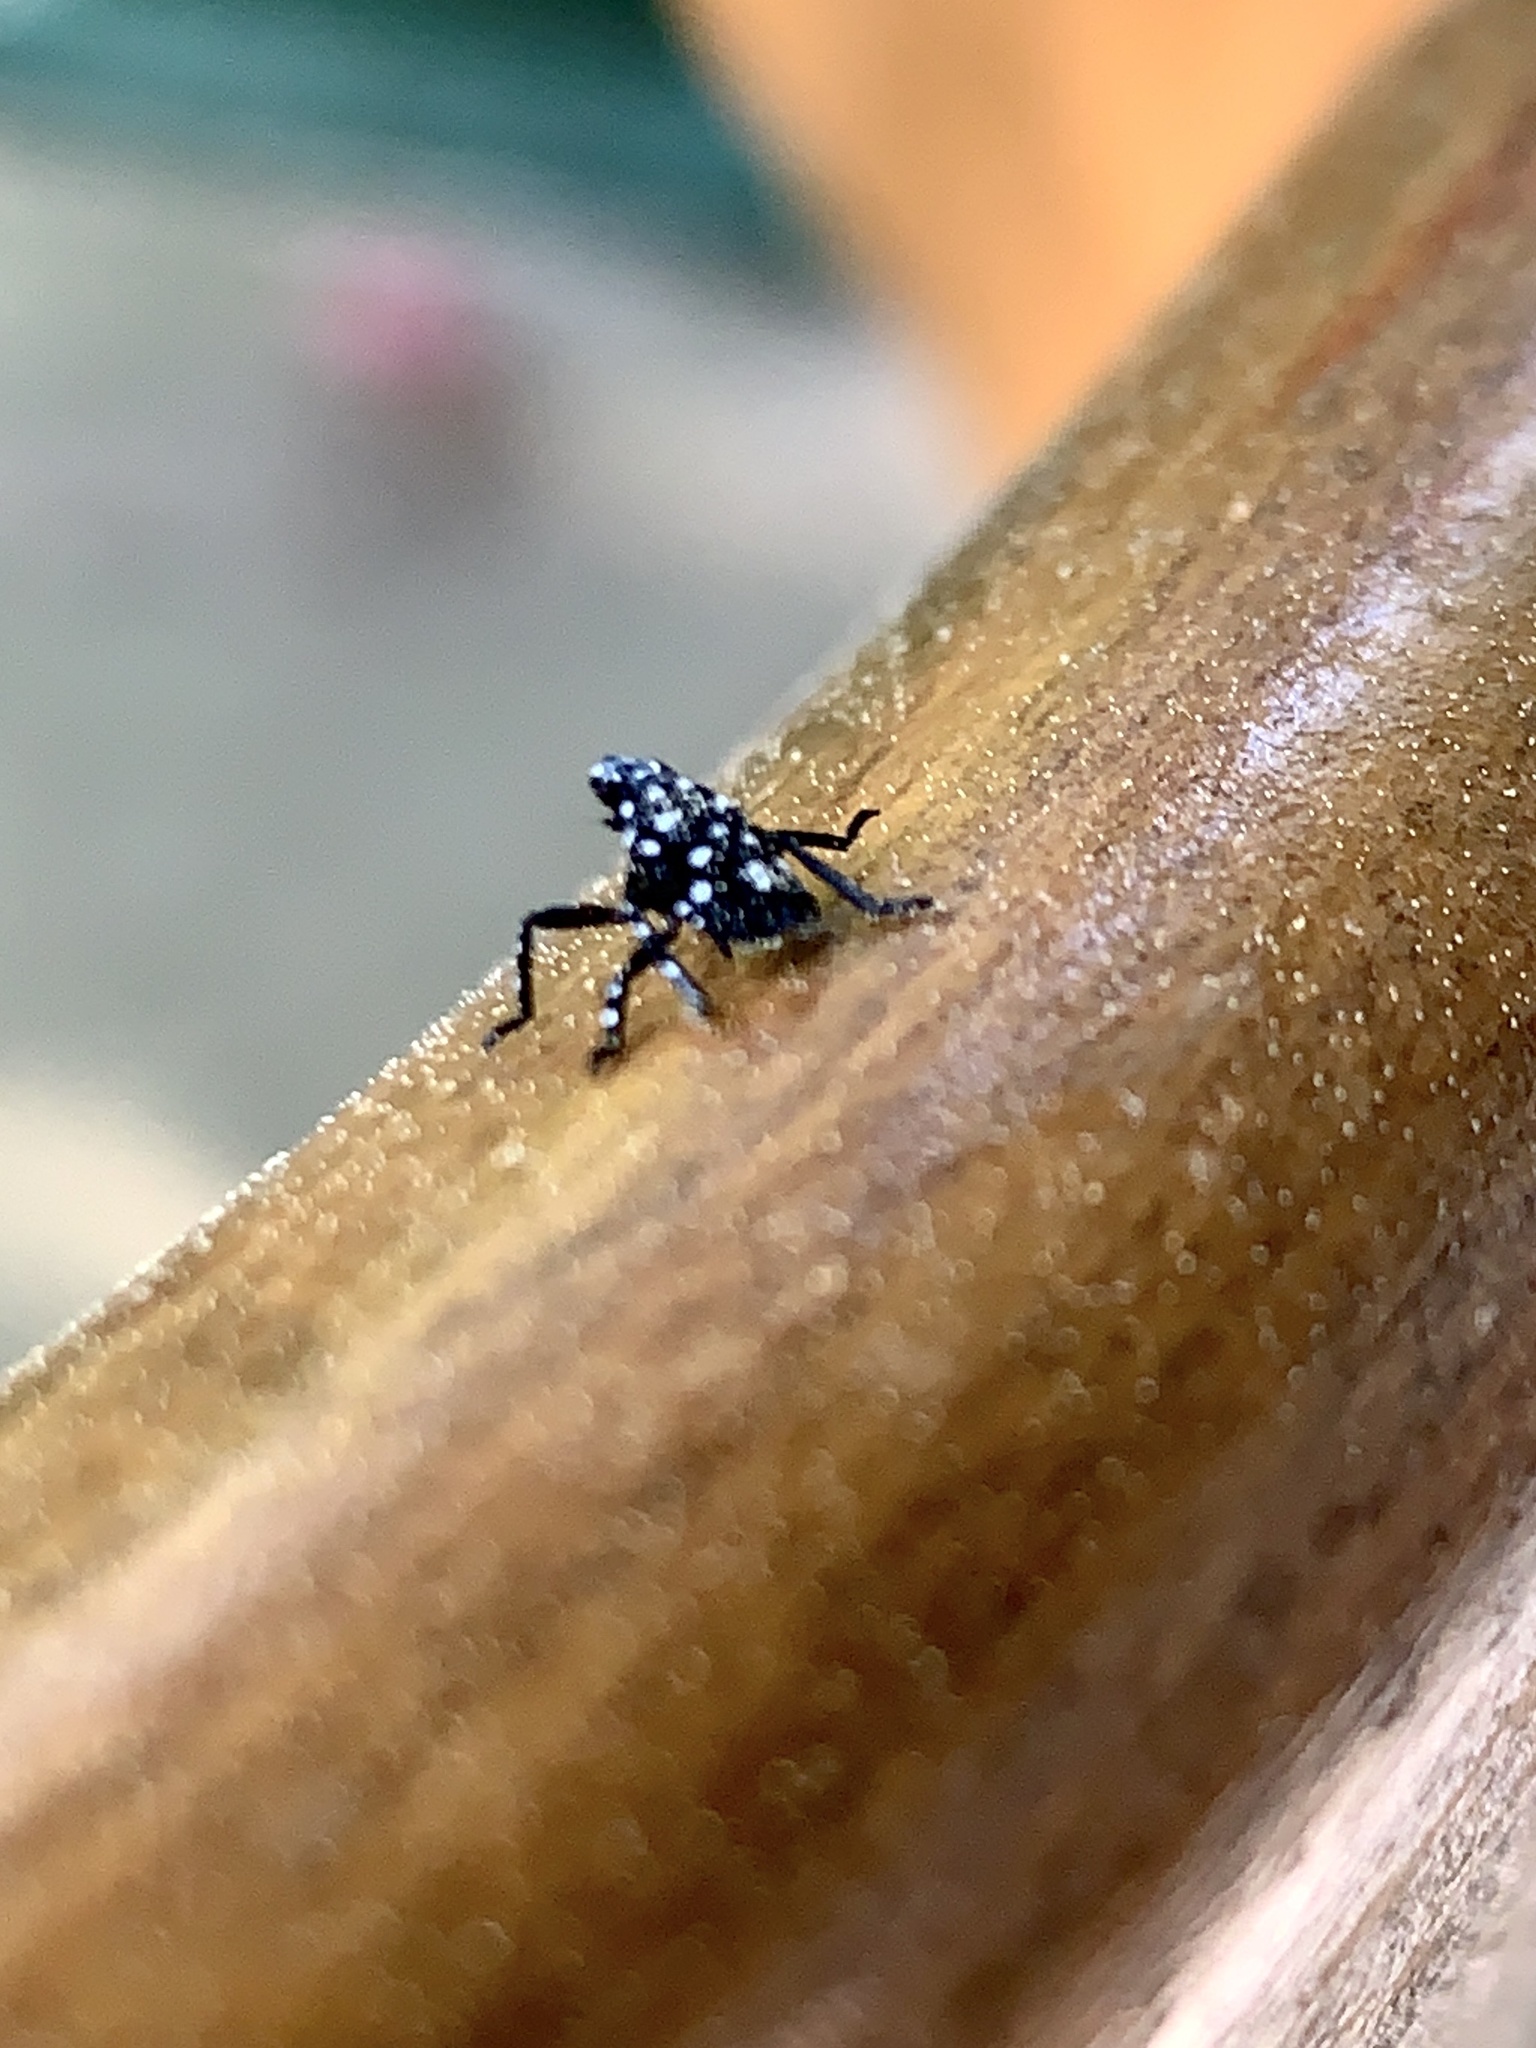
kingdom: Animalia
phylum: Arthropoda
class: Insecta
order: Hemiptera
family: Fulgoridae
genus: Lycorma
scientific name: Lycorma delicatula
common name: Spotted lanternfly
